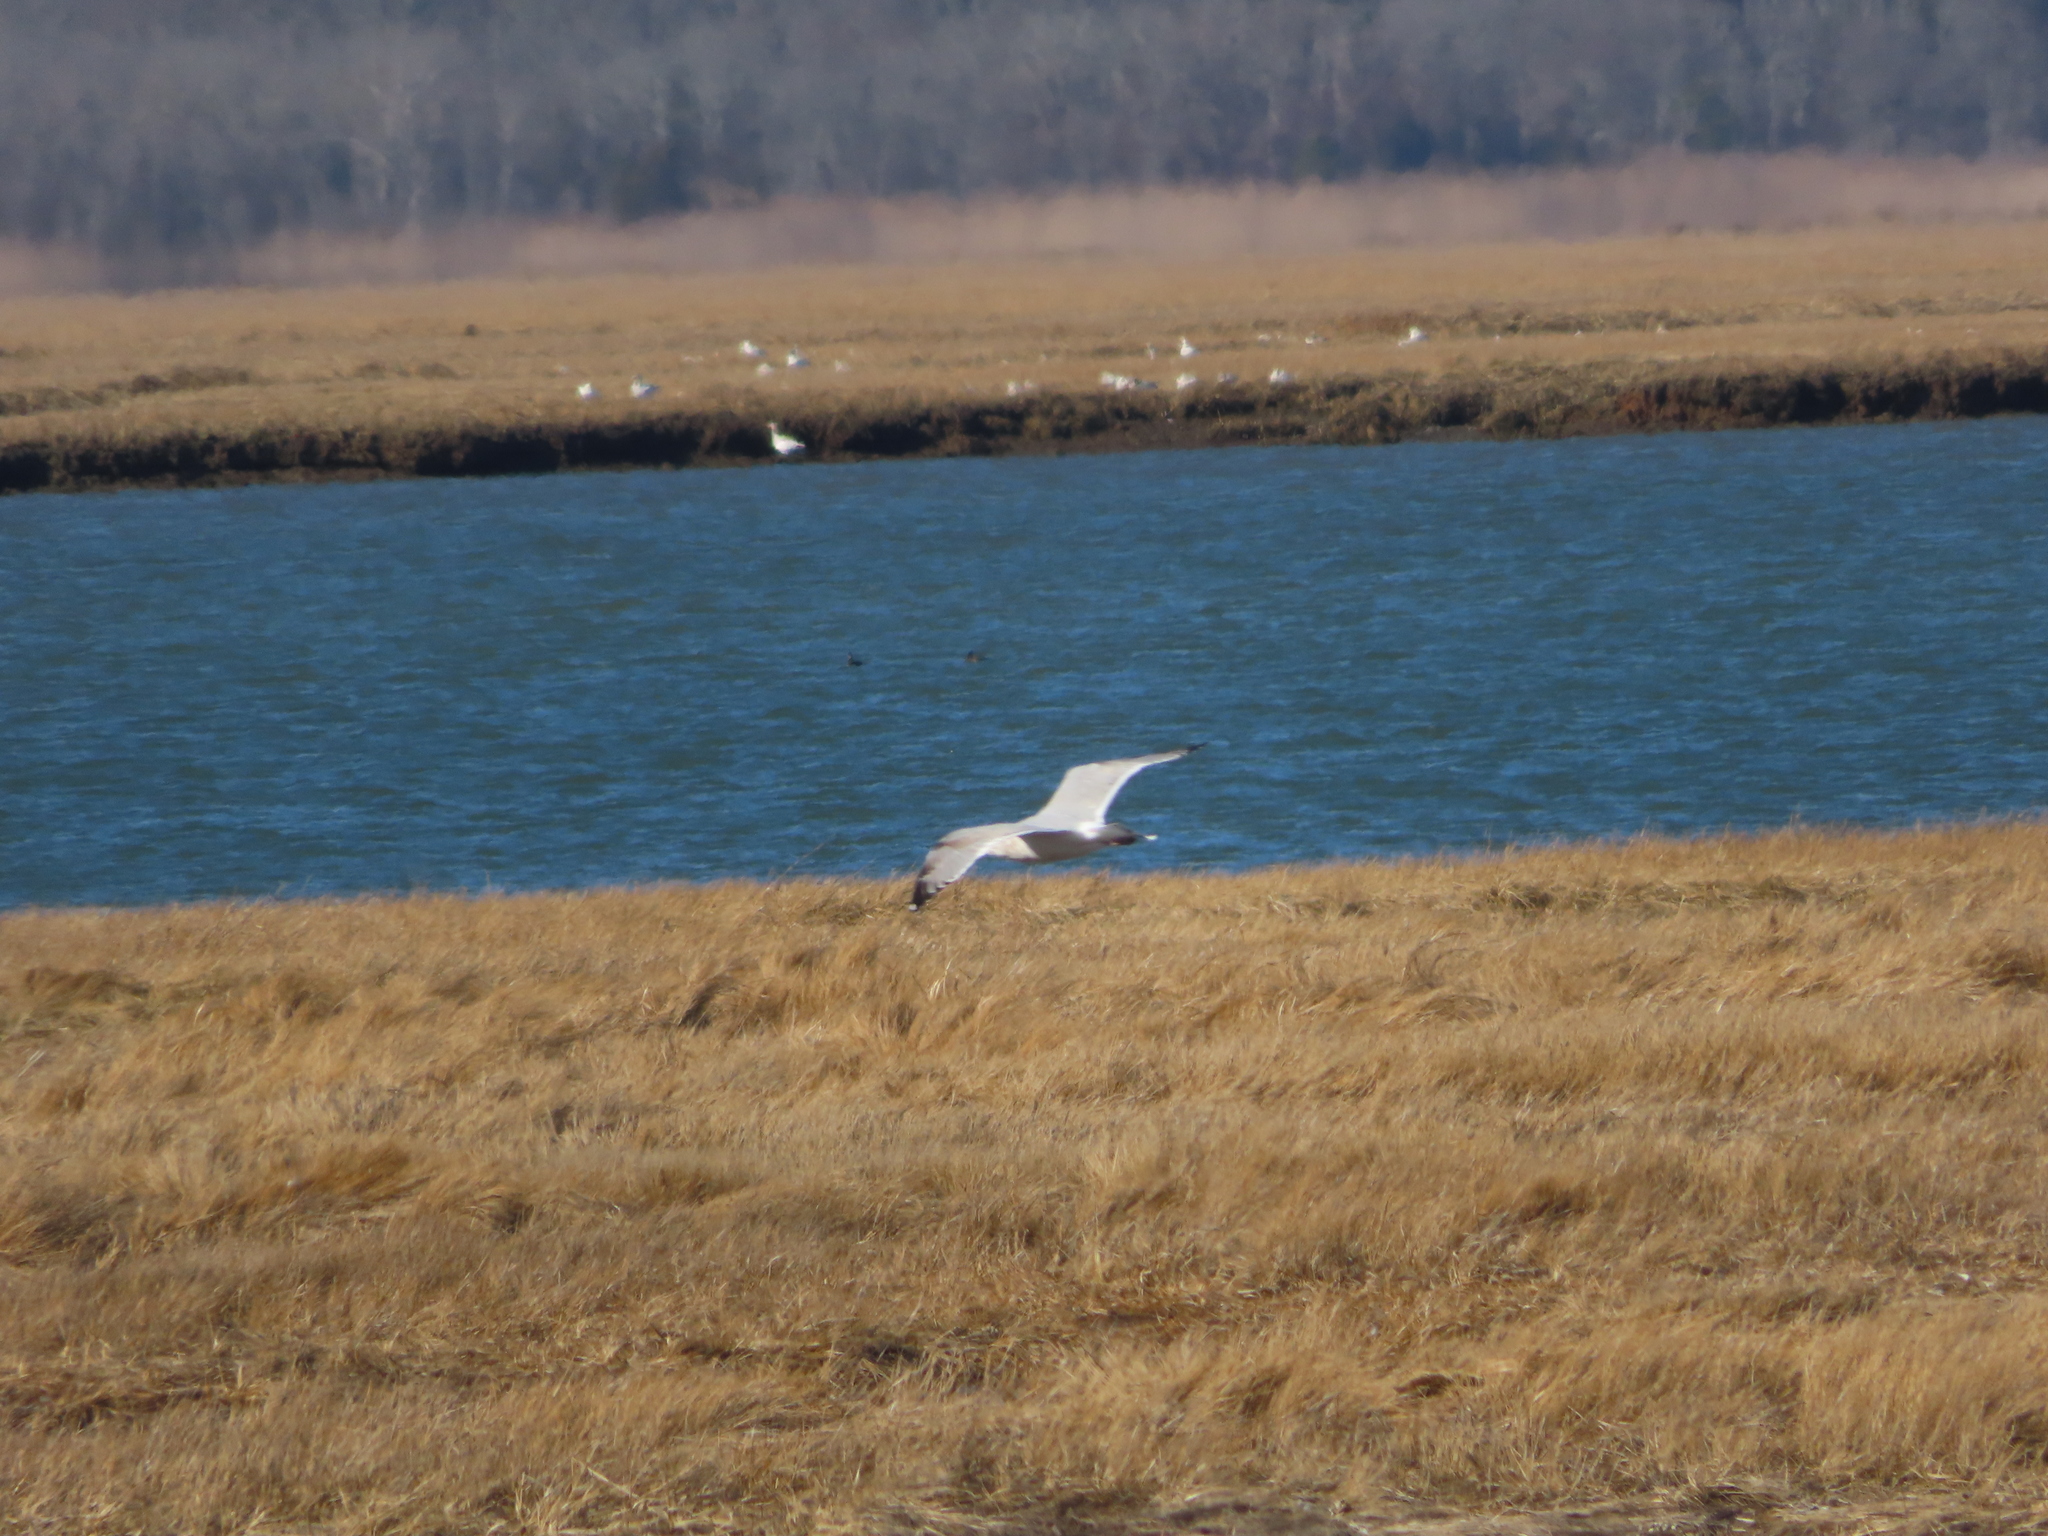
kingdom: Animalia
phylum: Chordata
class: Aves
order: Charadriiformes
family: Laridae
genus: Larus
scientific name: Larus argentatus
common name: Herring gull
